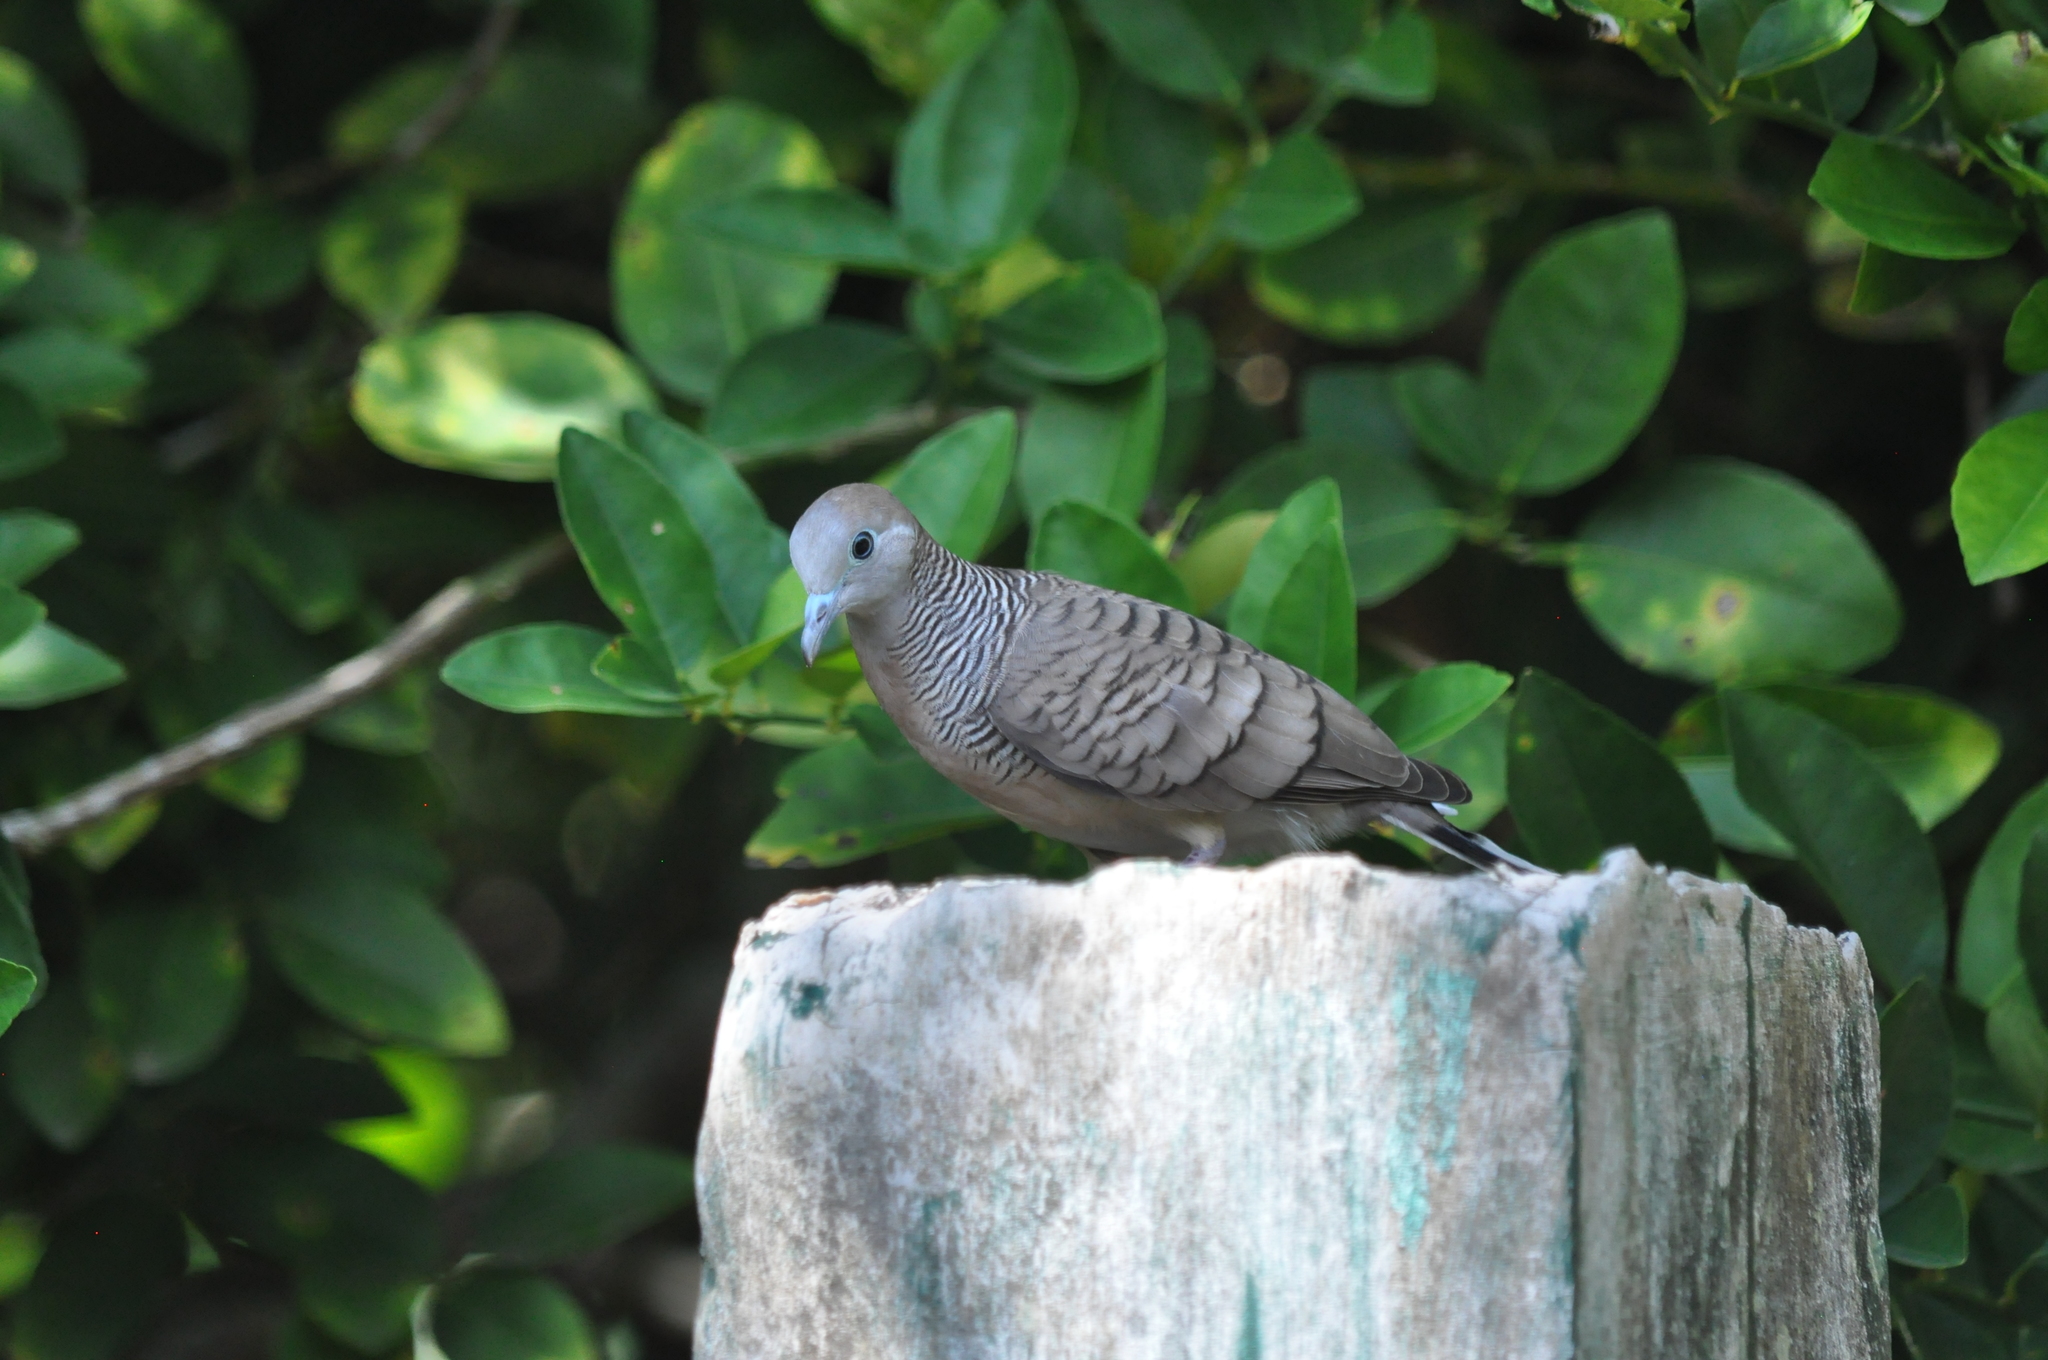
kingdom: Animalia
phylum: Chordata
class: Aves
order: Columbiformes
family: Columbidae
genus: Geopelia
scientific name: Geopelia striata
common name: Zebra dove
